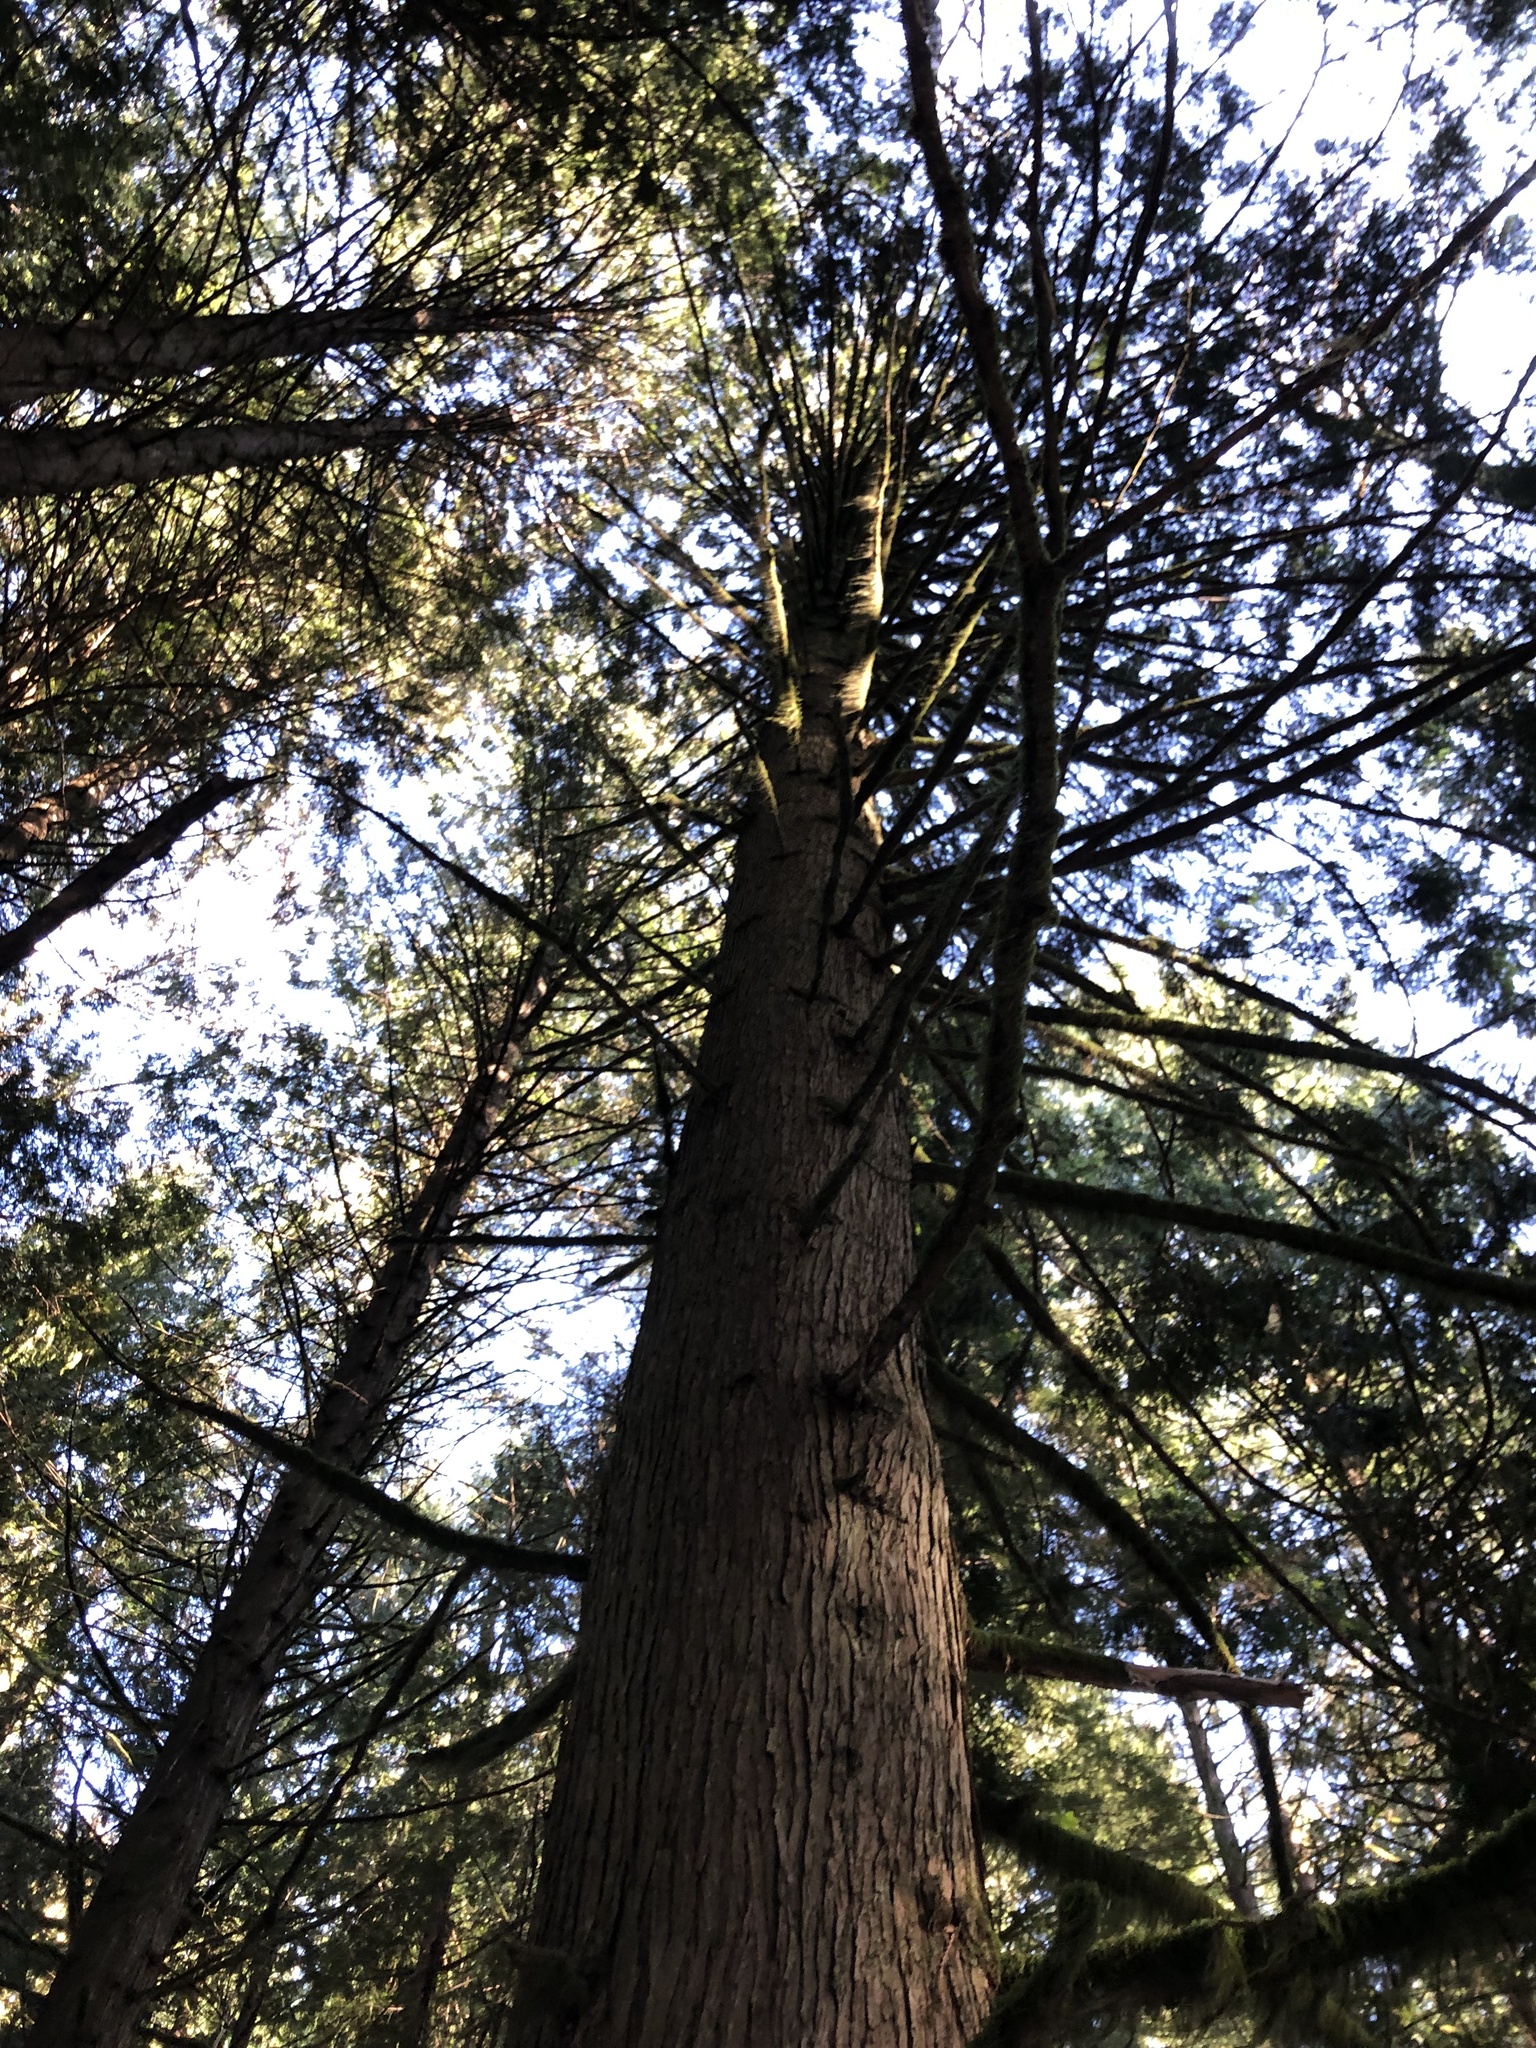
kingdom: Plantae
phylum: Tracheophyta
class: Pinopsida
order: Pinales
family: Cupressaceae
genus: Thuja
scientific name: Thuja plicata
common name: Western red-cedar
